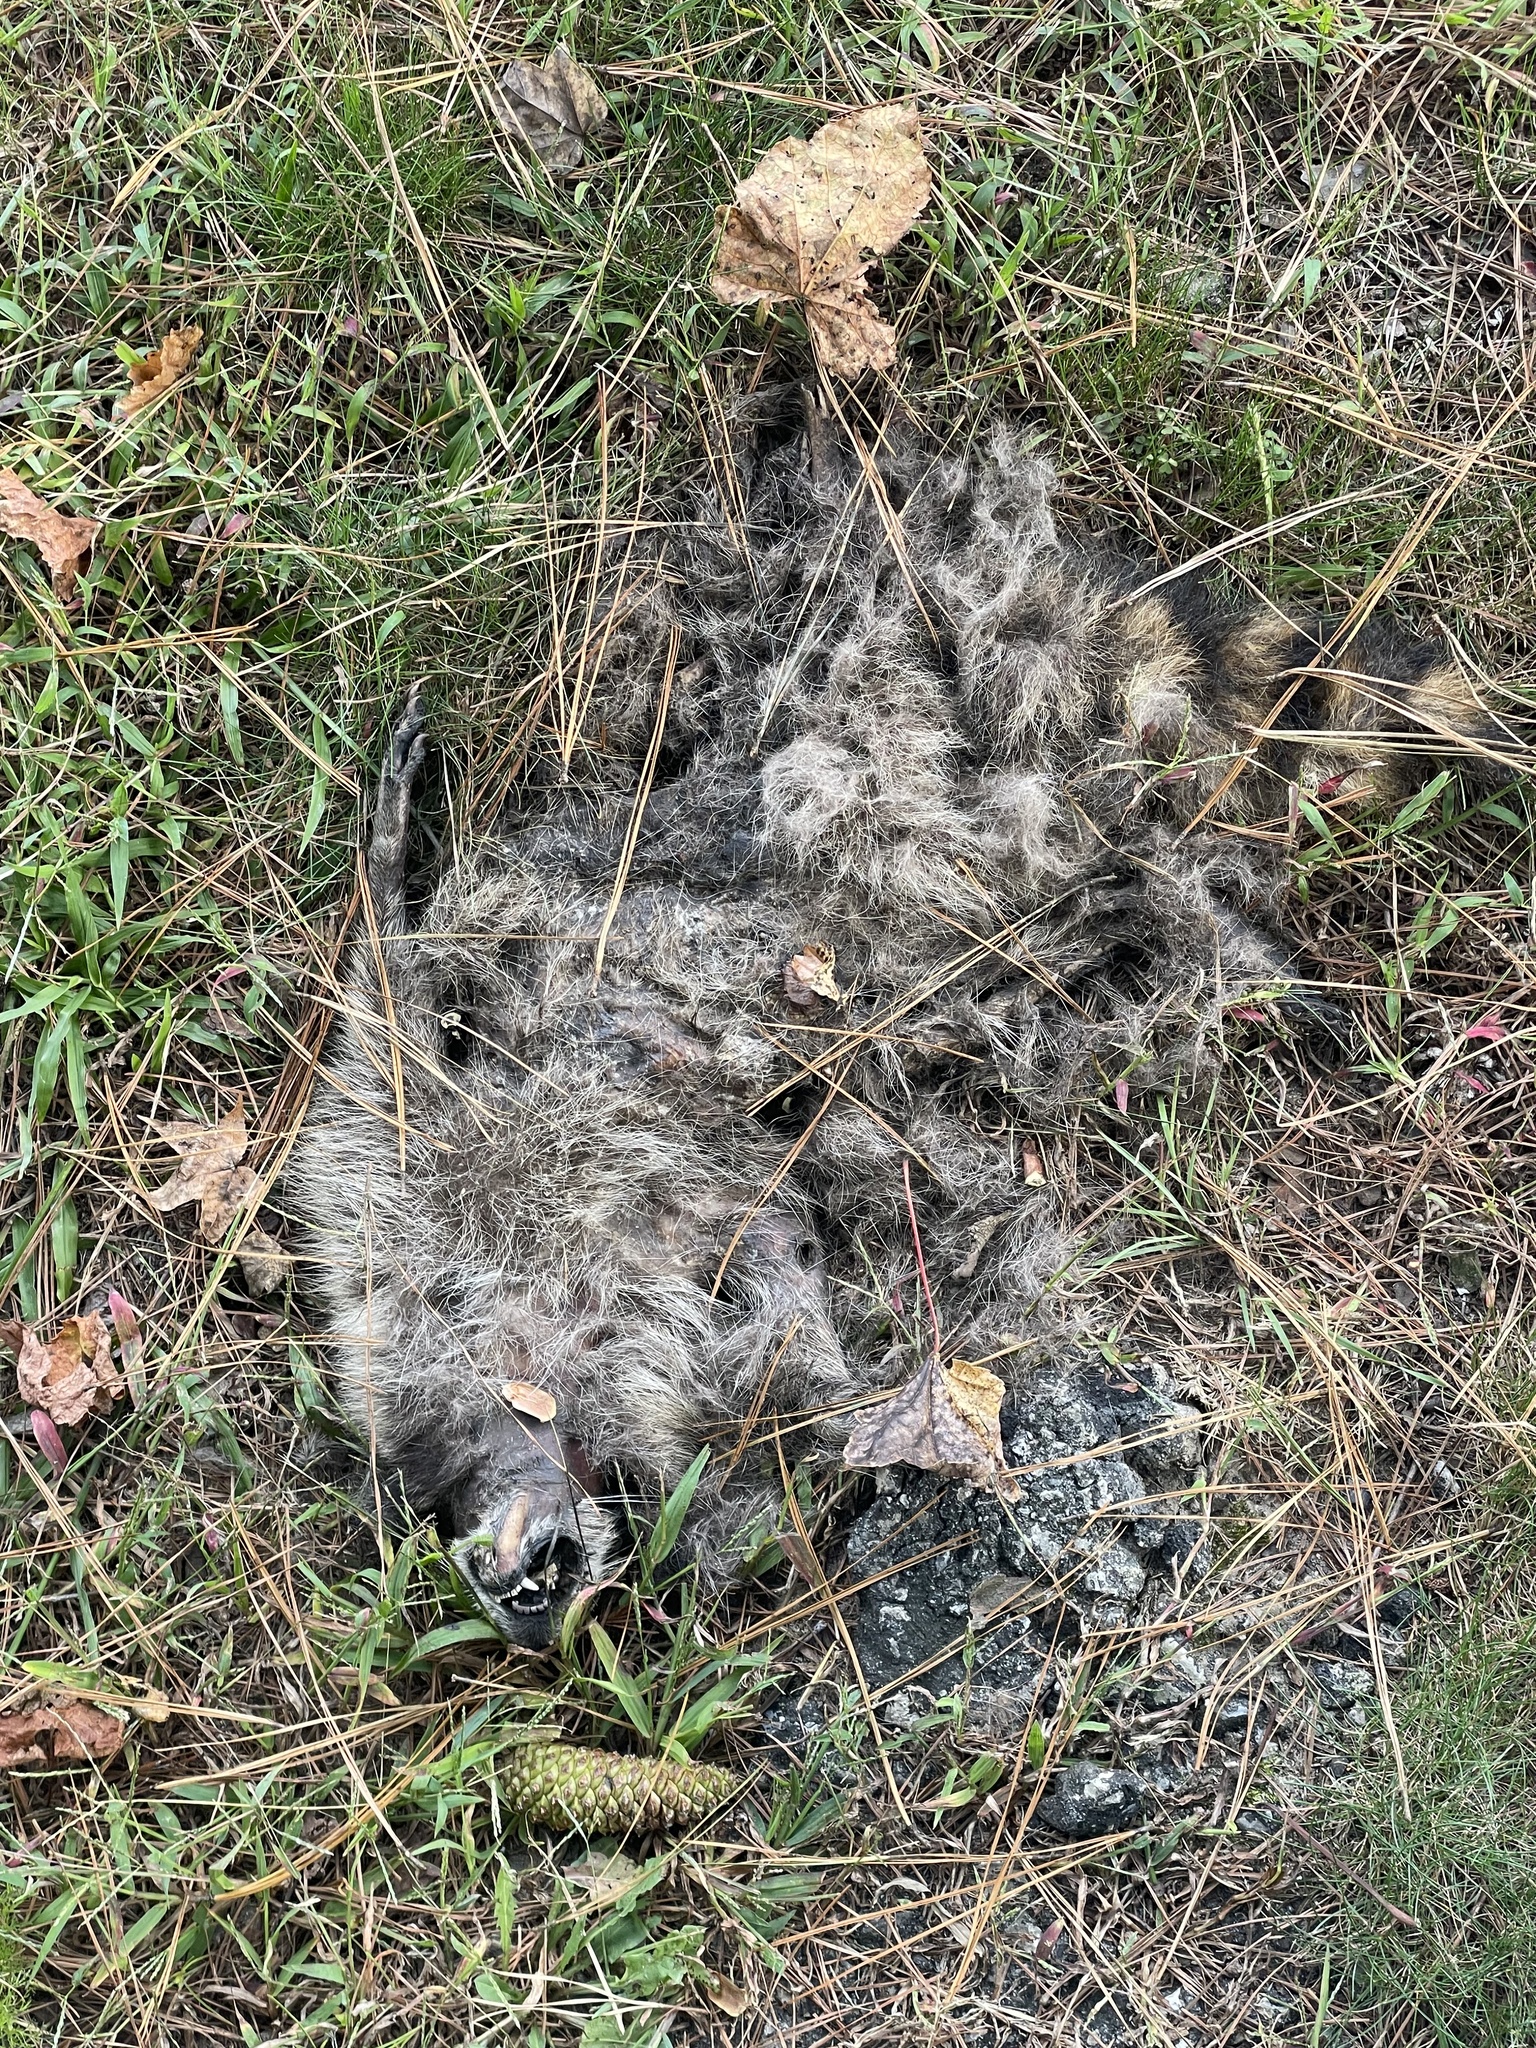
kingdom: Animalia
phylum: Chordata
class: Mammalia
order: Carnivora
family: Procyonidae
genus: Procyon
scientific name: Procyon lotor
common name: Raccoon
